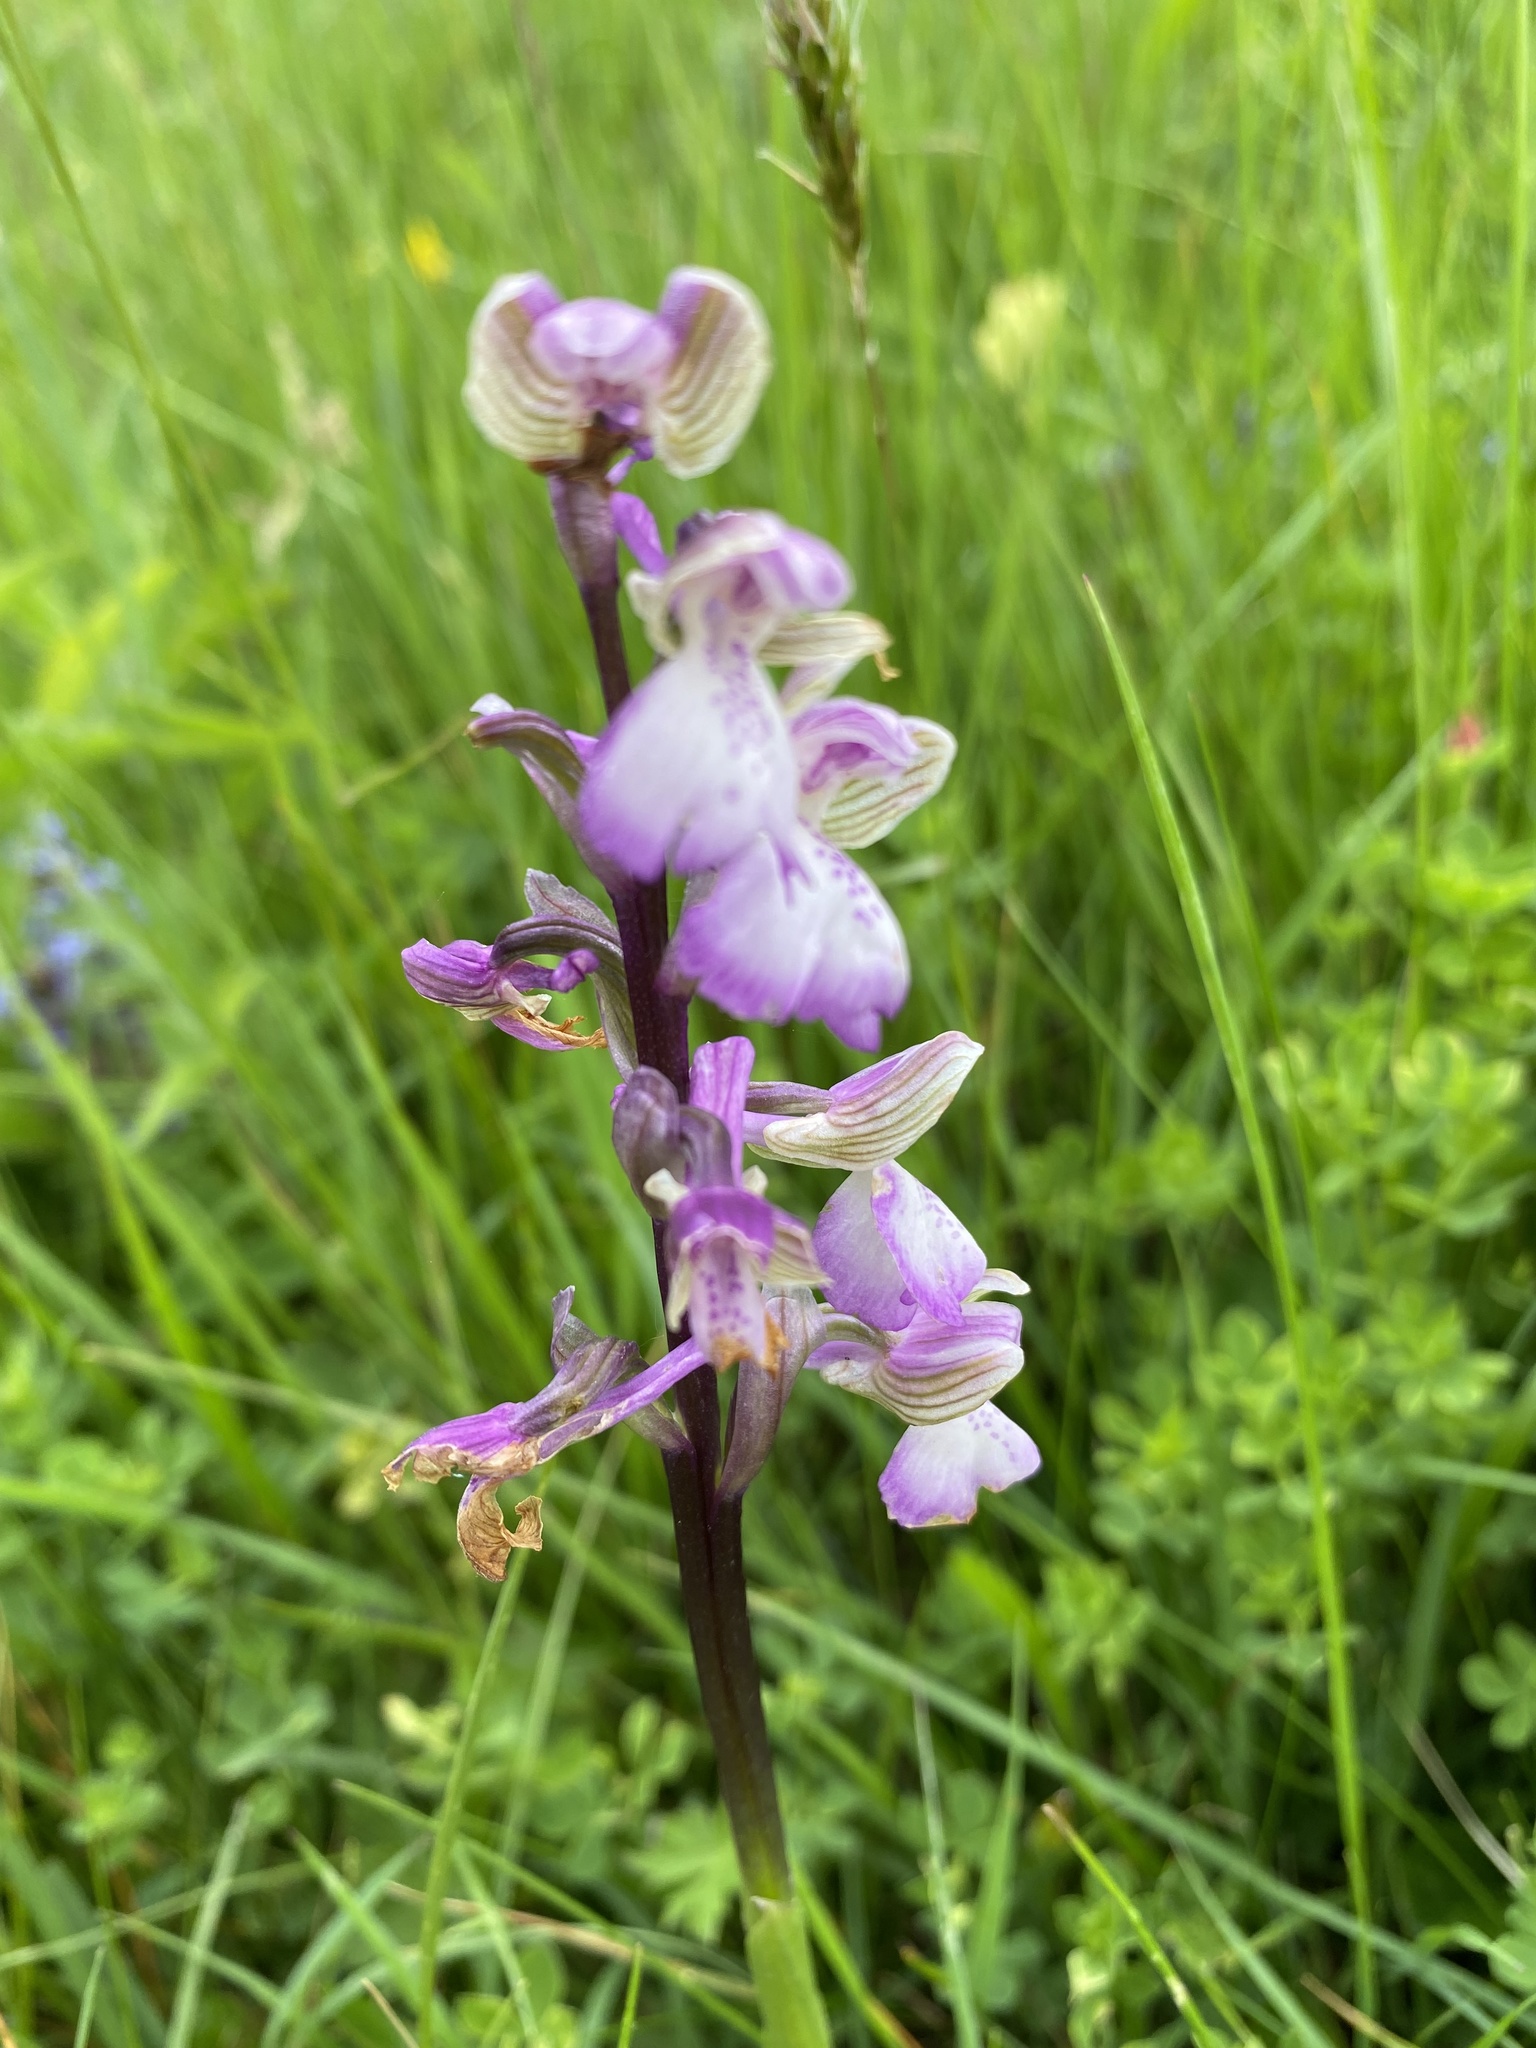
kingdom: Plantae
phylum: Tracheophyta
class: Liliopsida
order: Asparagales
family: Orchidaceae
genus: Anacamptis
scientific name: Anacamptis morio
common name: Green-winged orchid
